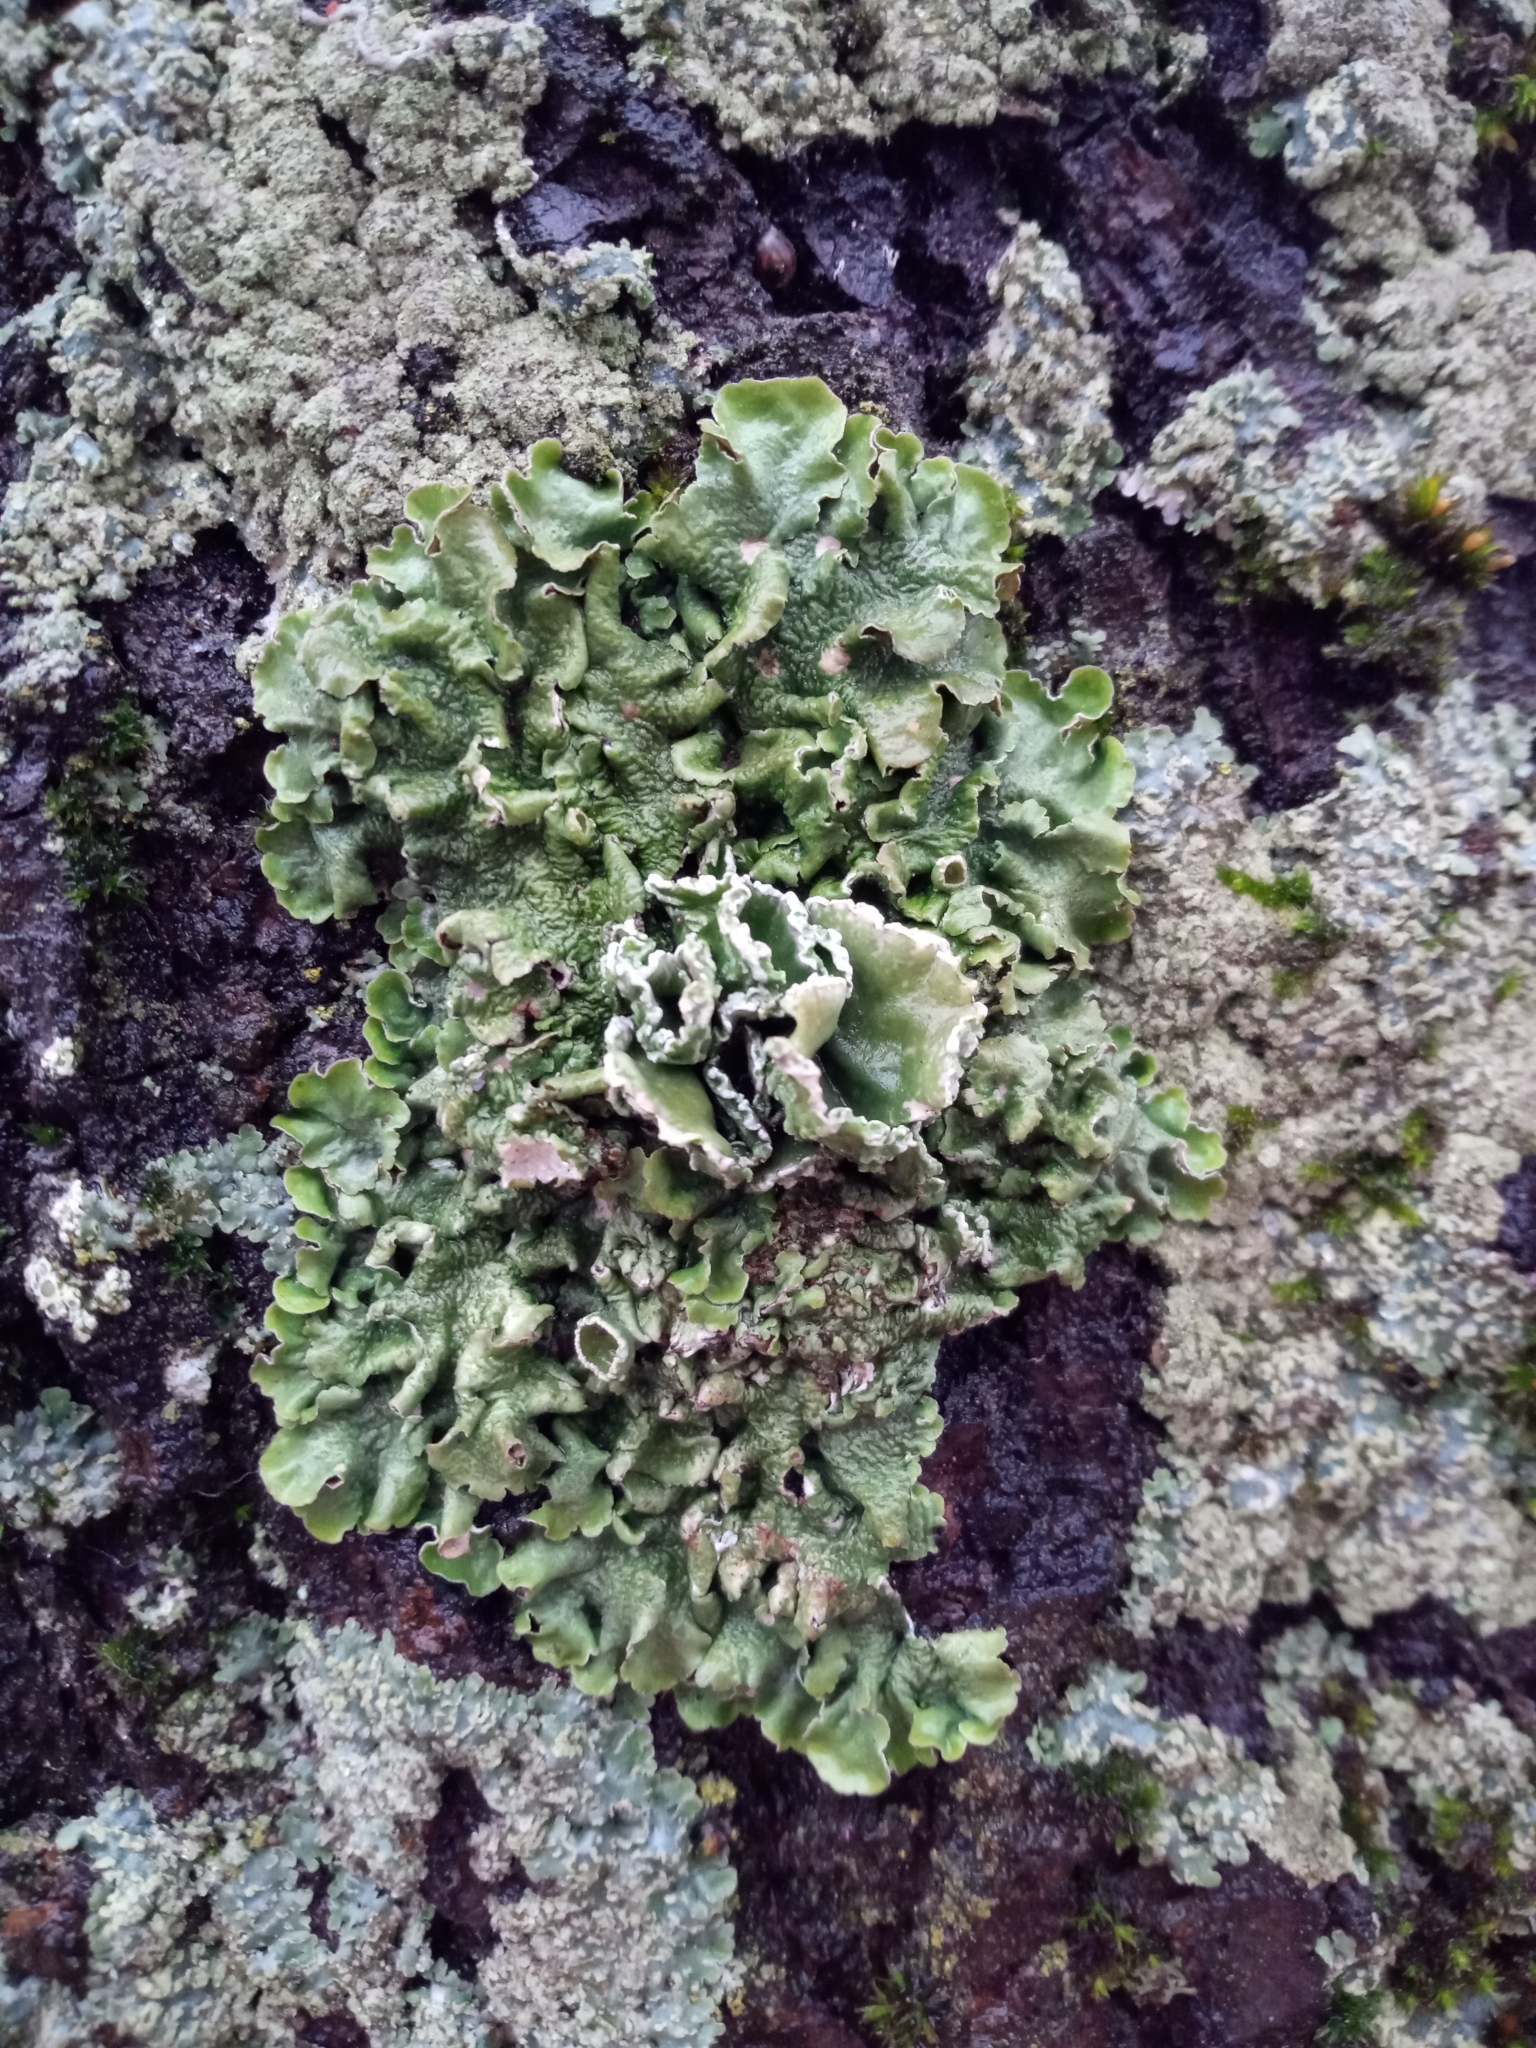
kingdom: Fungi
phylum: Ascomycota
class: Lecanoromycetes
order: Lecanorales
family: Parmeliaceae
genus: Pleurosticta
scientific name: Pleurosticta acetabulum
